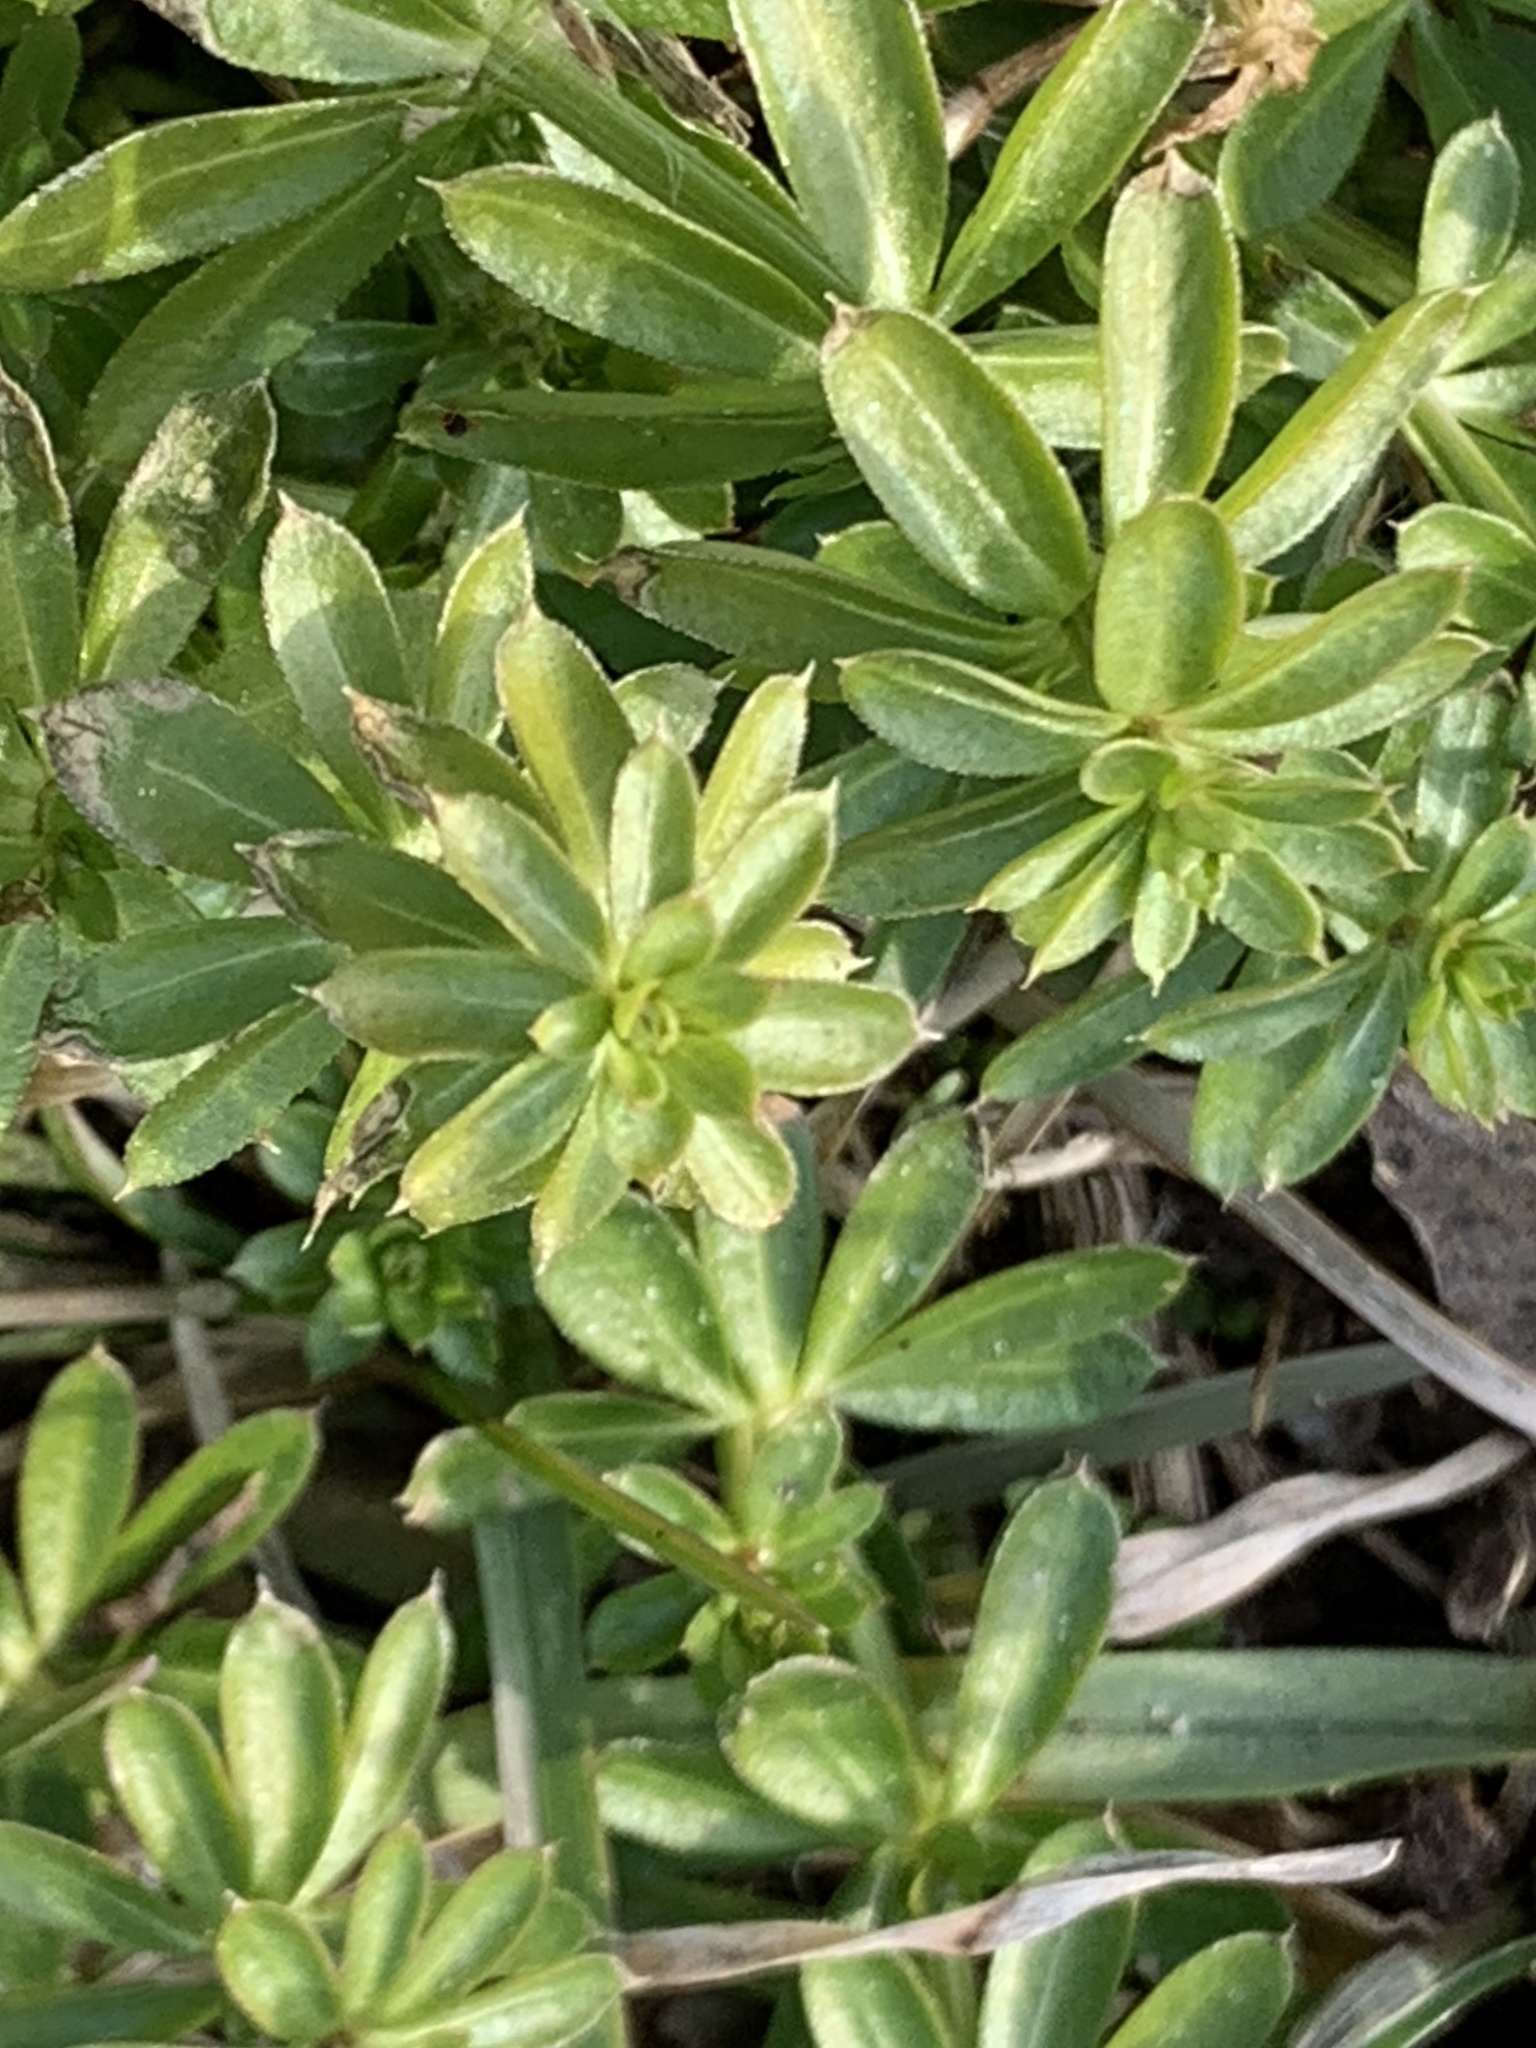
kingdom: Plantae
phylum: Tracheophyta
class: Magnoliopsida
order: Gentianales
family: Rubiaceae
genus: Galium
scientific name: Galium mollugo
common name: Hedge bedstraw
